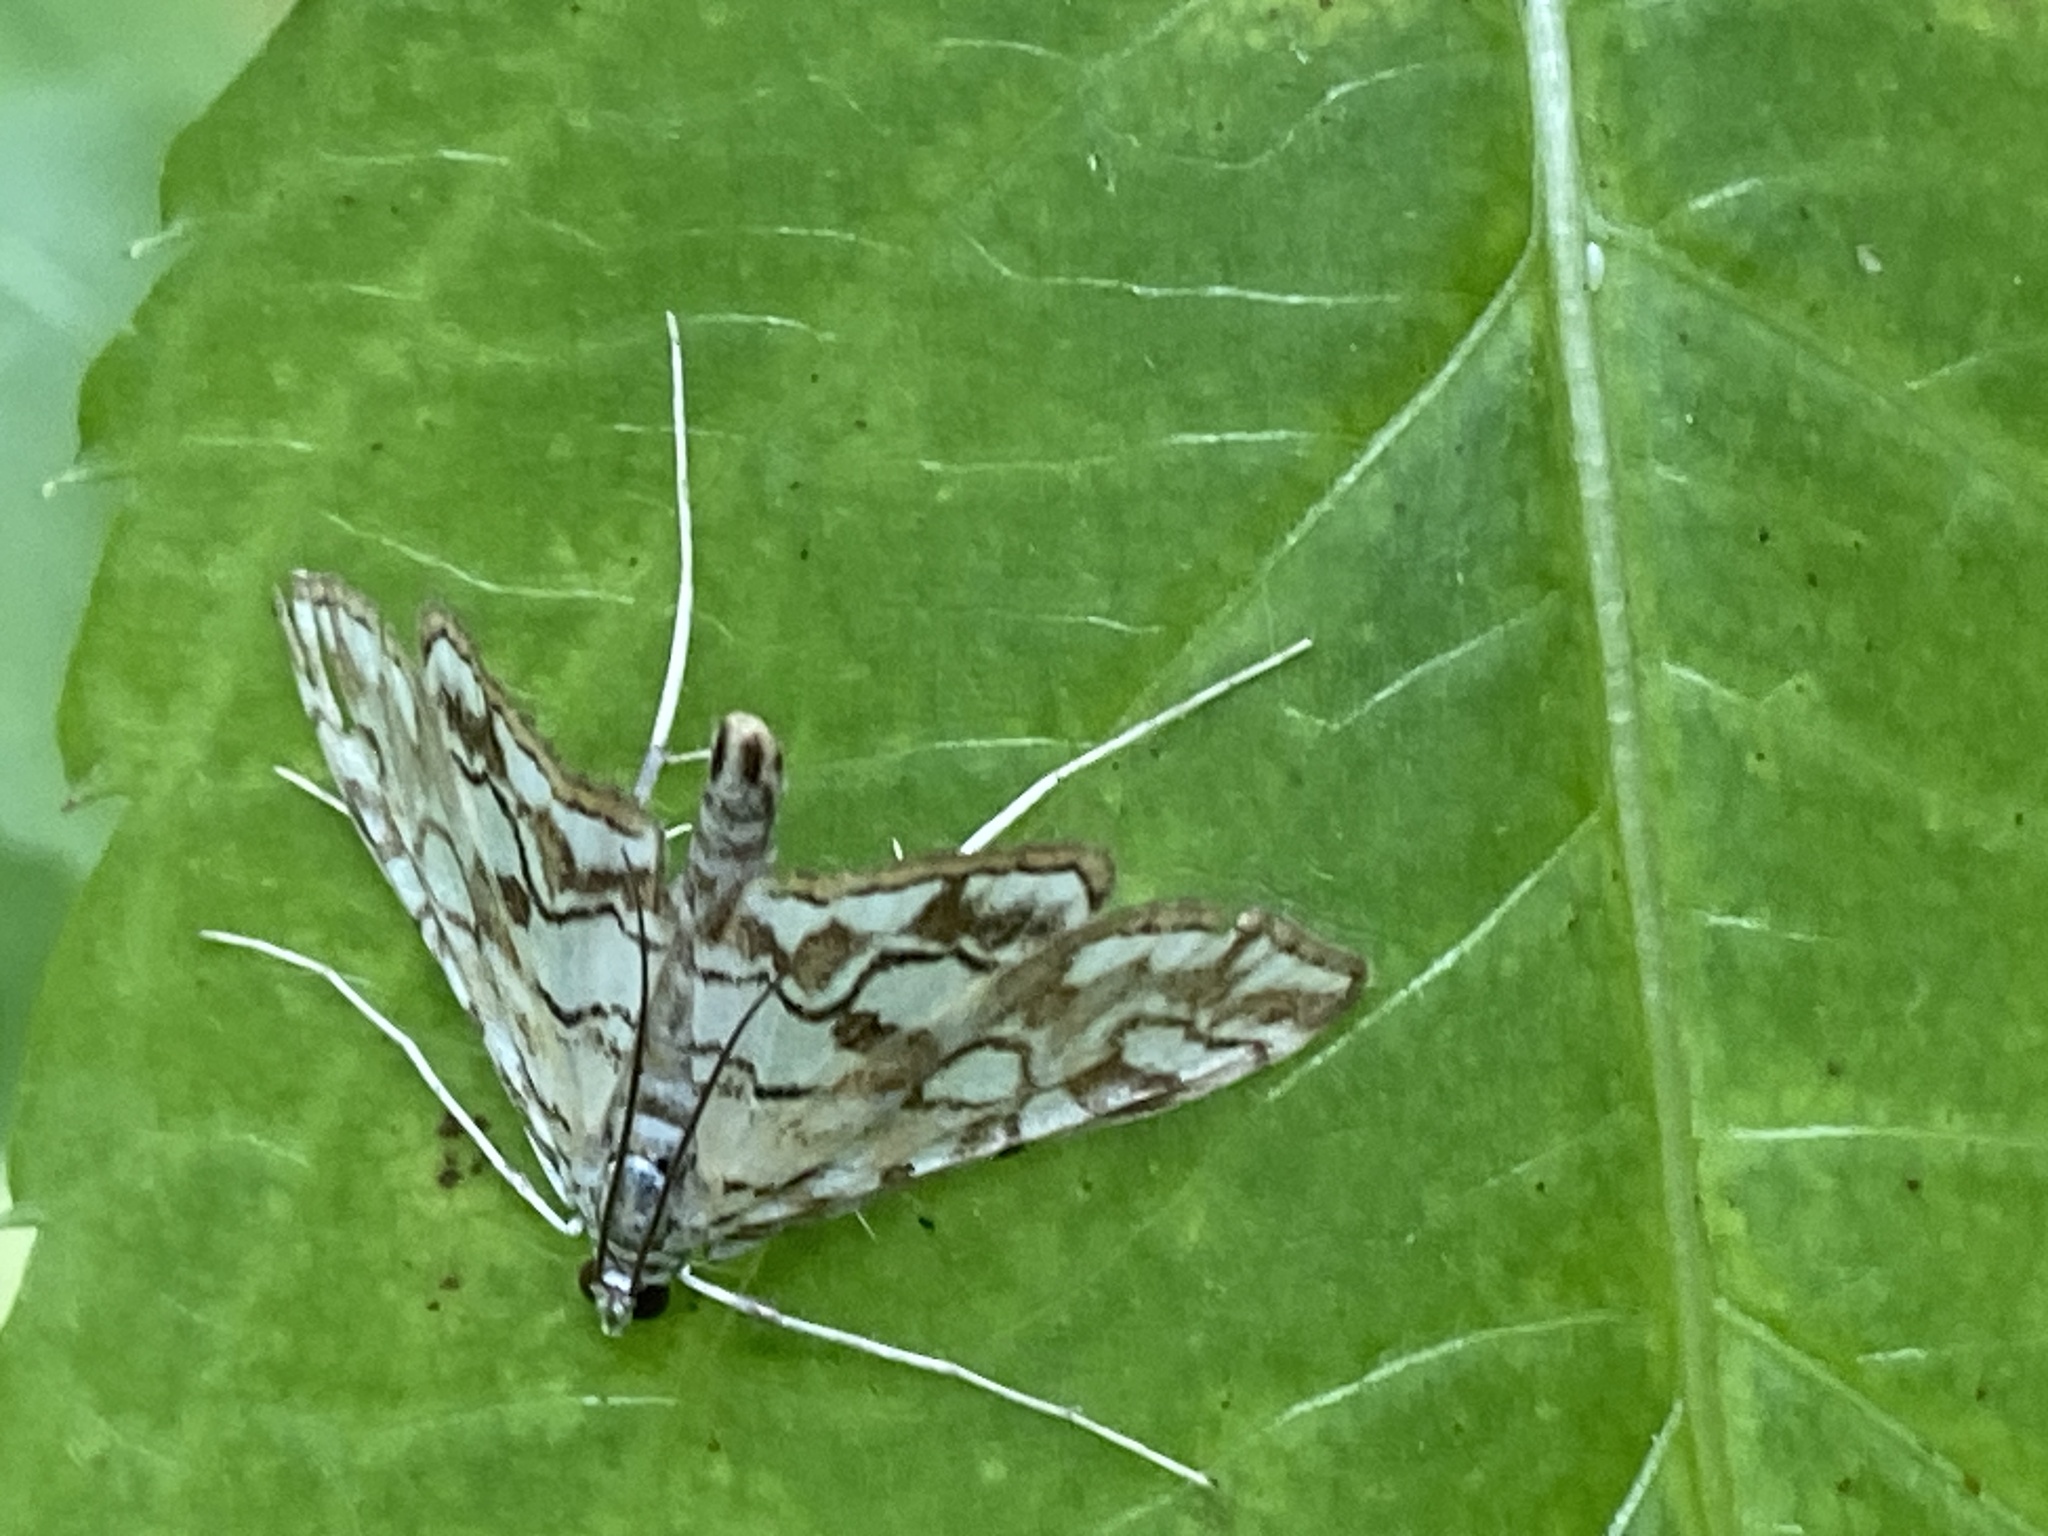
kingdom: Animalia
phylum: Arthropoda
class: Insecta
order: Lepidoptera
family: Crambidae
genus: Elophila
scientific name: Elophila nymphaeata
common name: Brown china-mark
